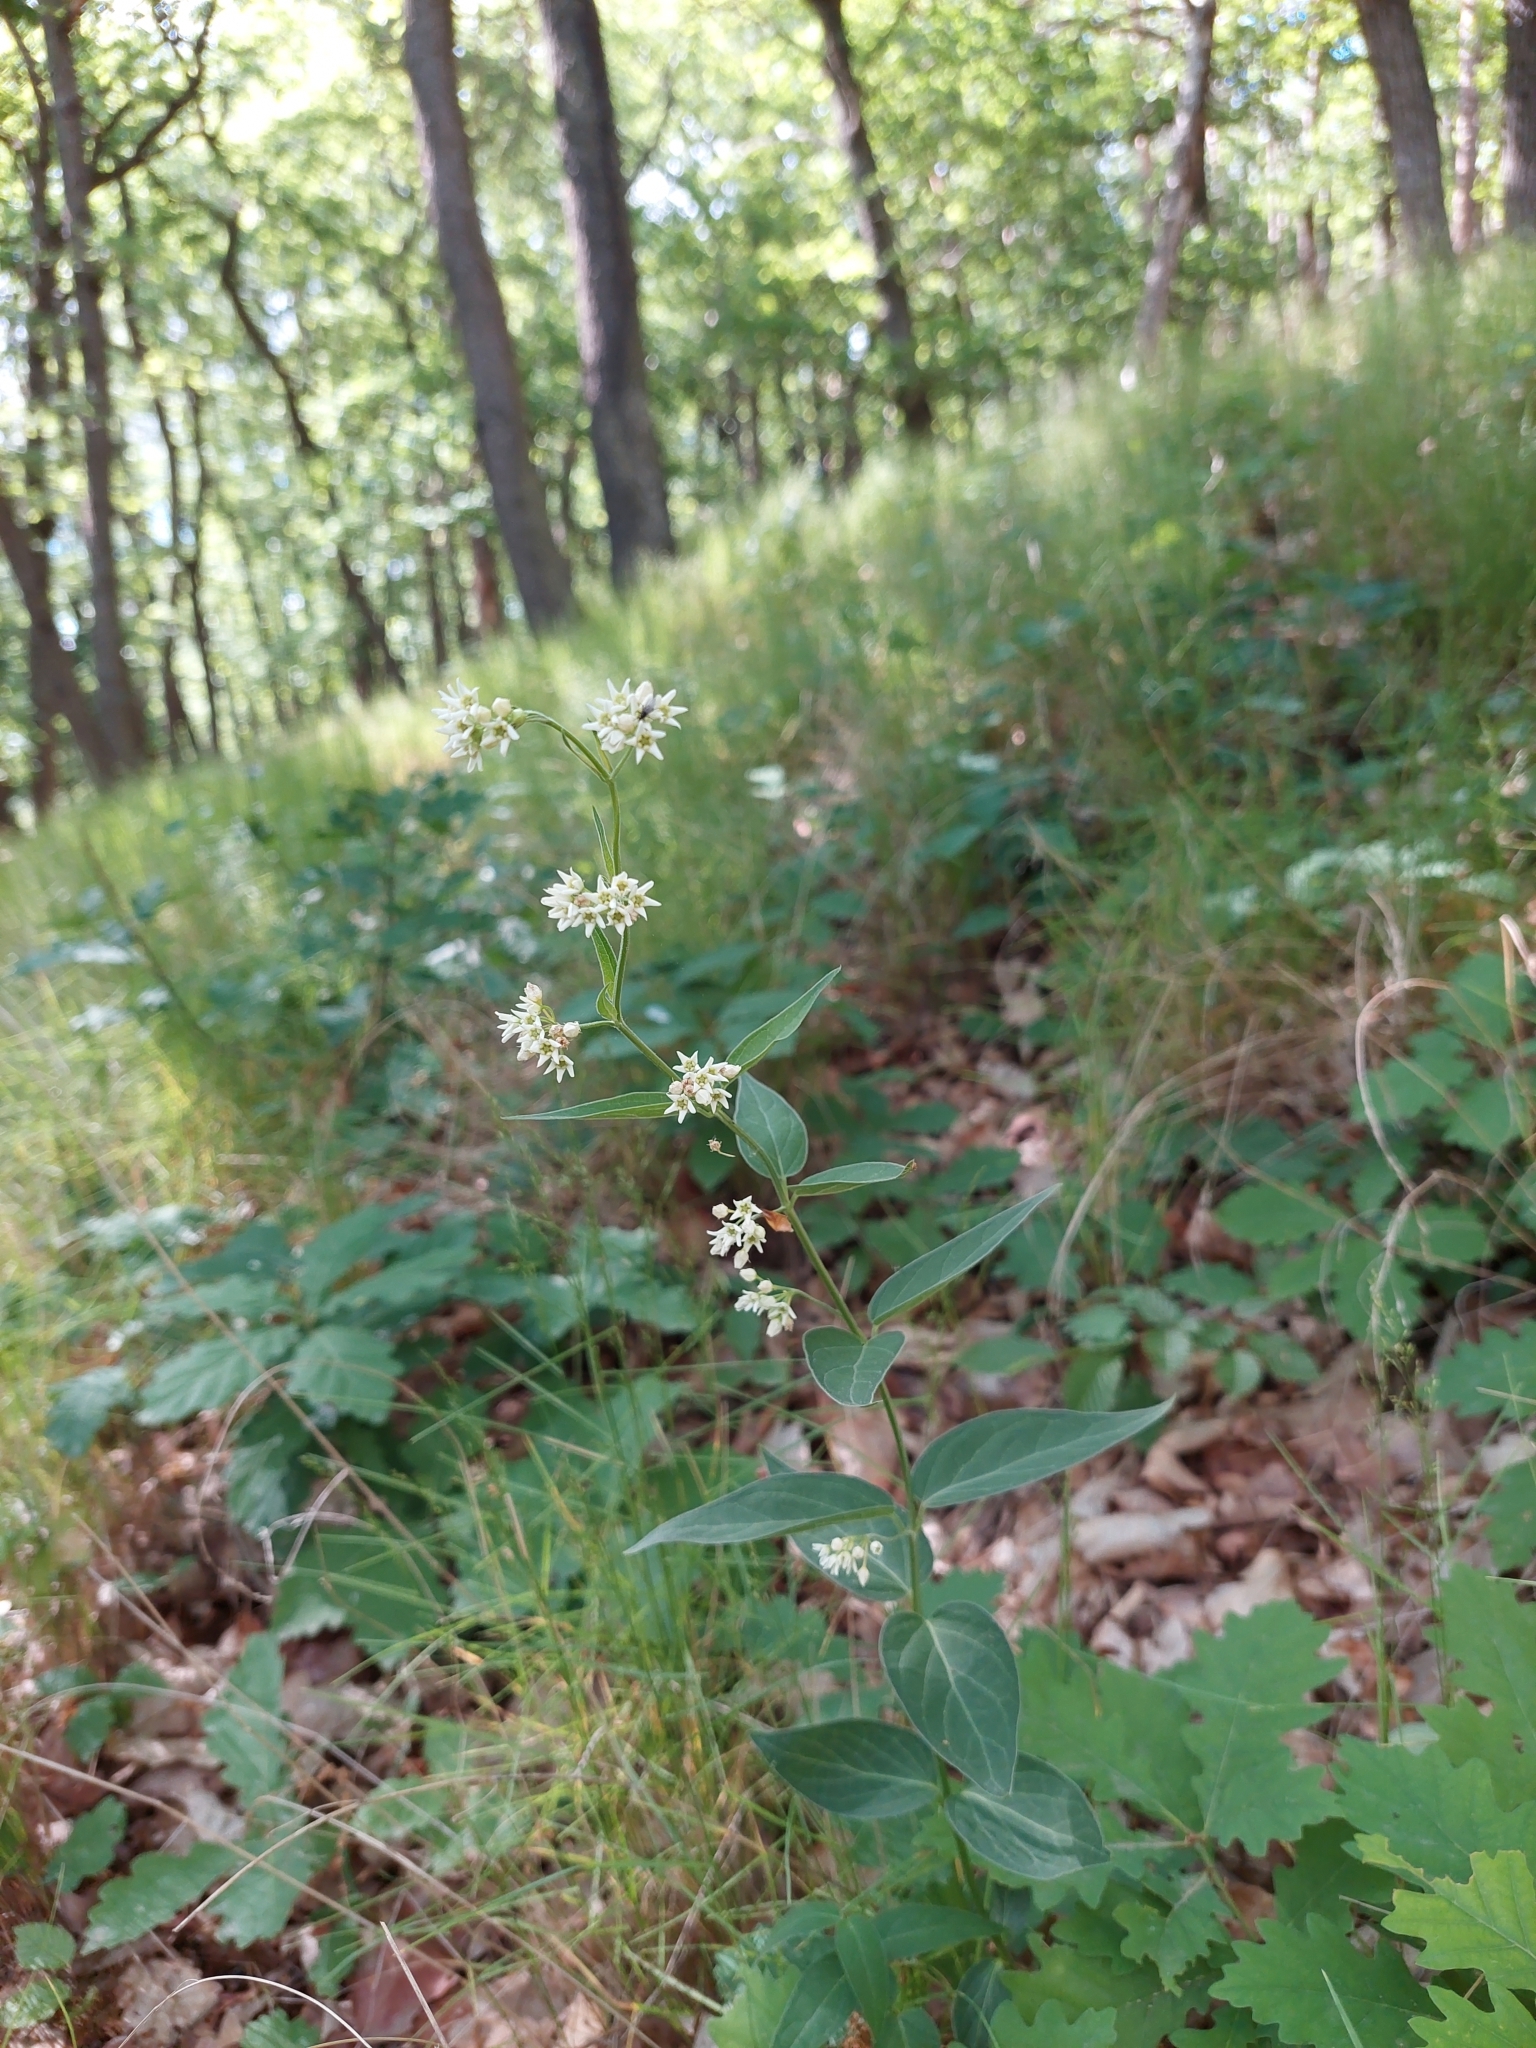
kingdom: Plantae
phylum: Tracheophyta
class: Magnoliopsida
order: Gentianales
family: Apocynaceae
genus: Vincetoxicum
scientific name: Vincetoxicum hirundinaria
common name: White swallowwort
